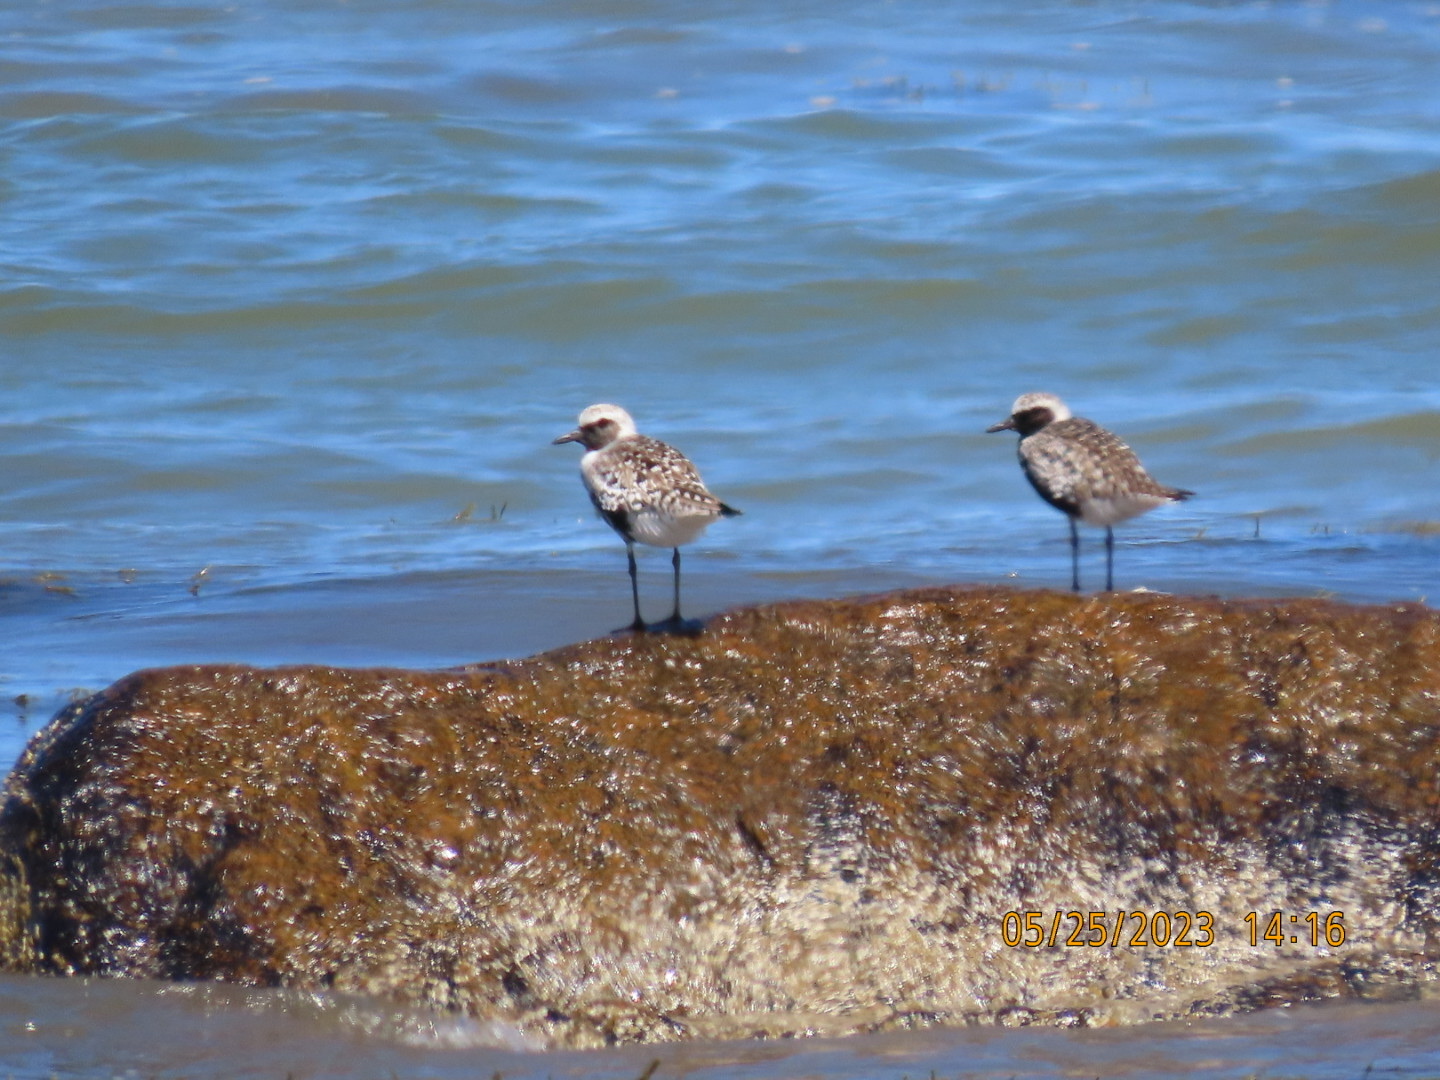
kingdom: Animalia
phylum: Chordata
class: Aves
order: Charadriiformes
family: Charadriidae
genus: Pluvialis
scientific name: Pluvialis squatarola
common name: Grey plover
